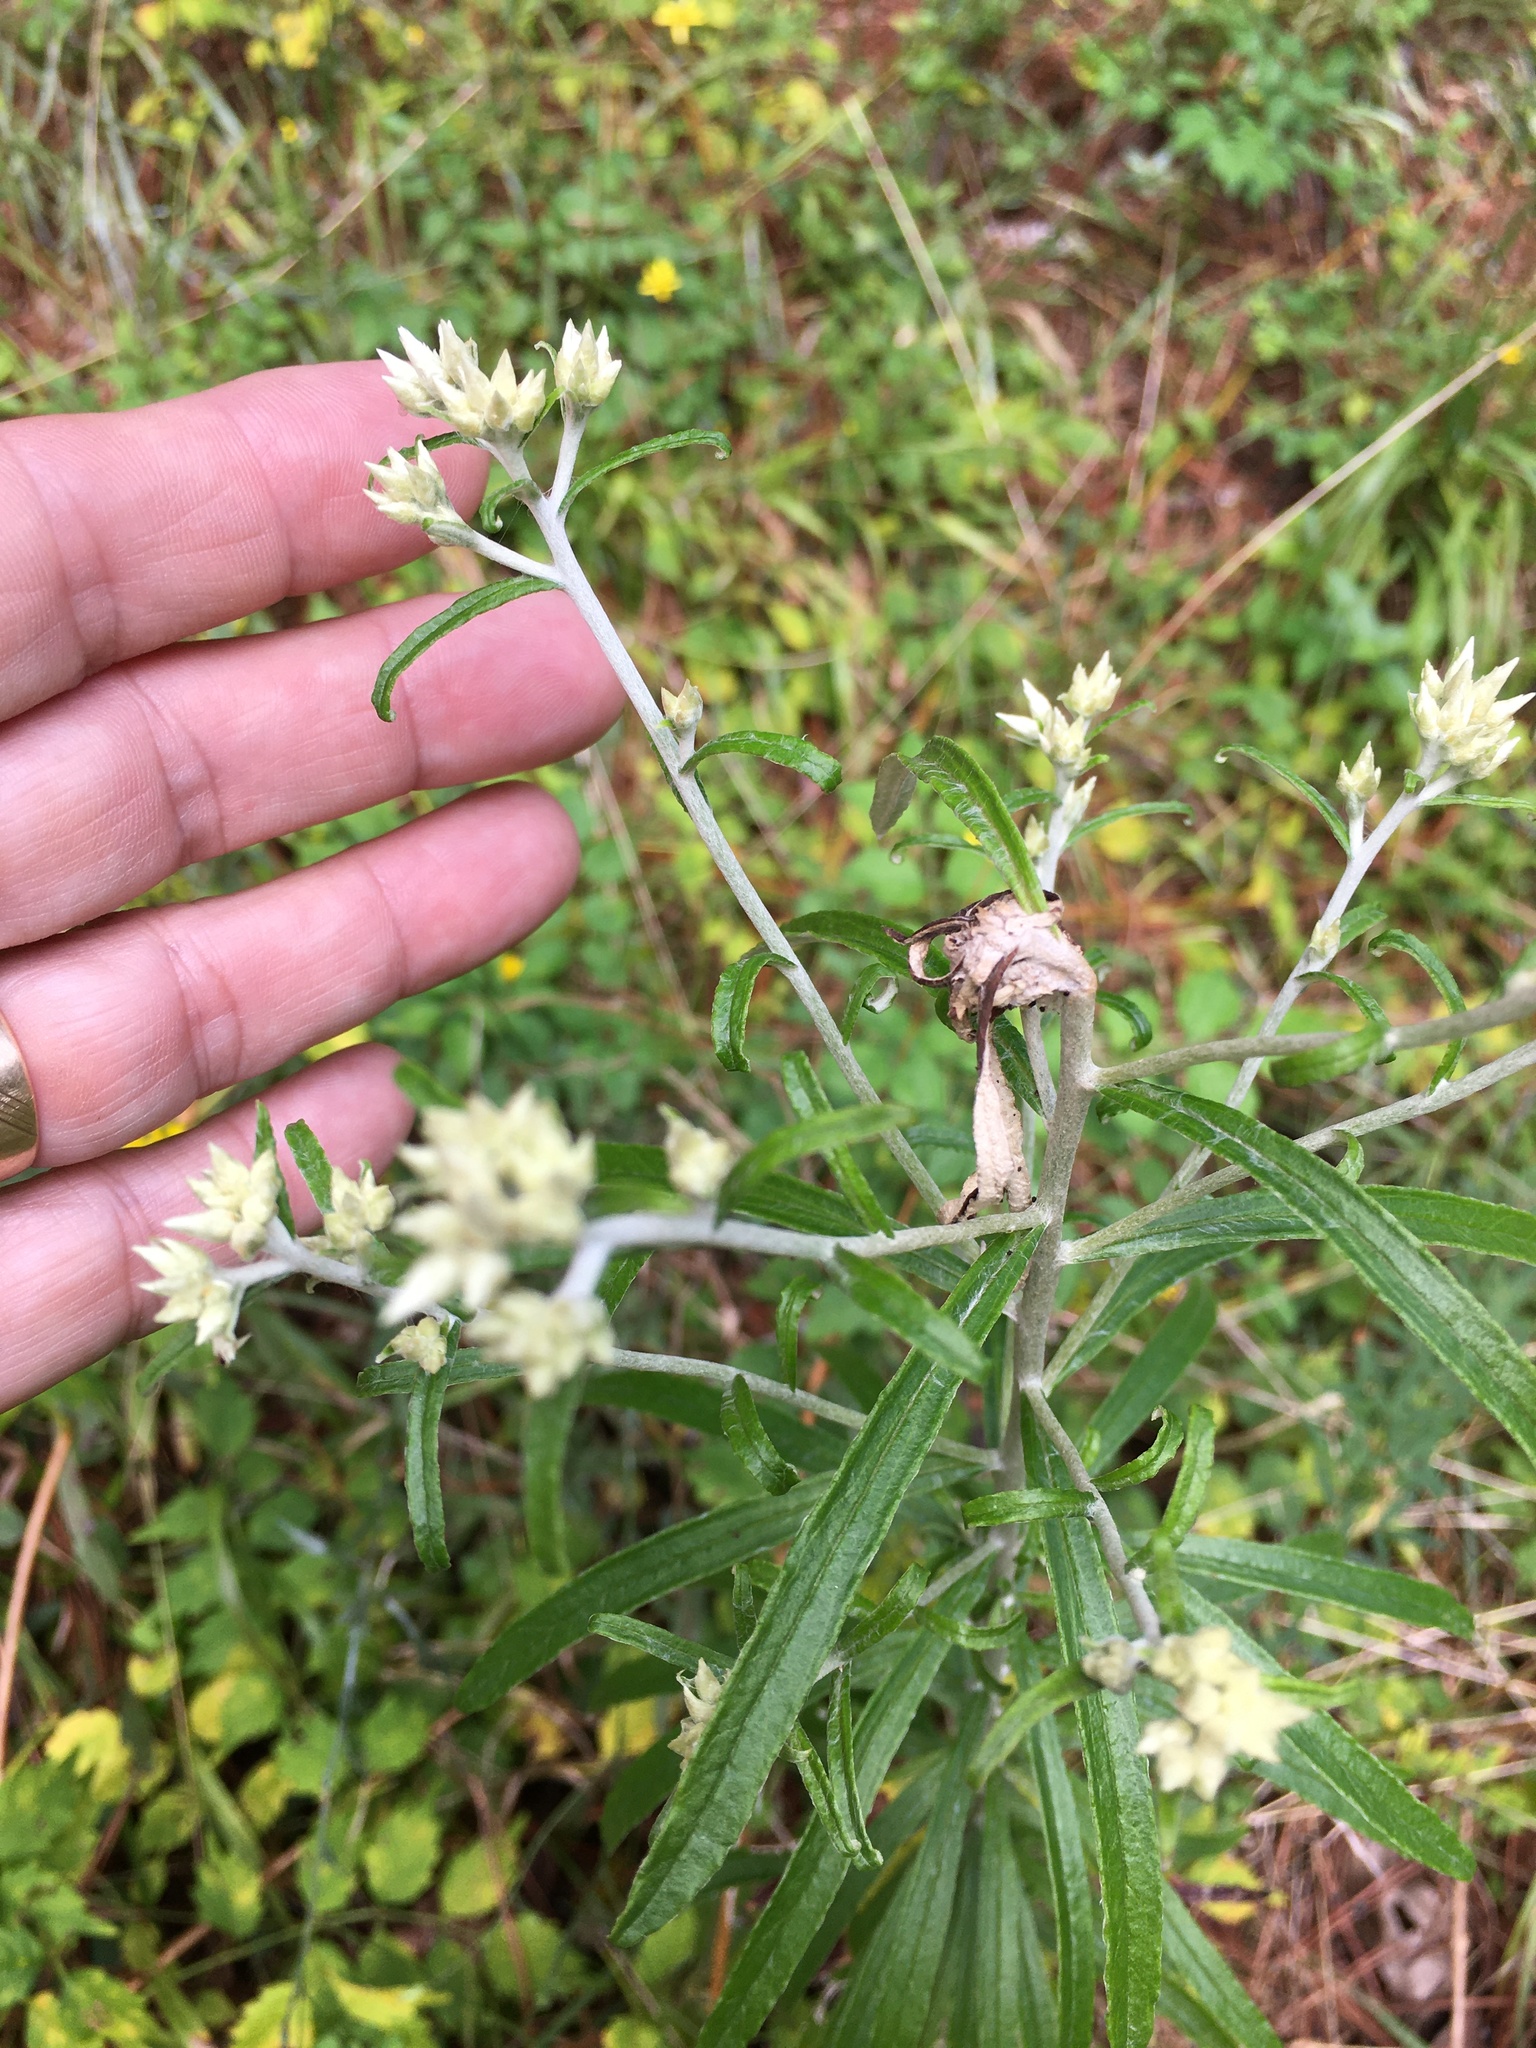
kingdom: Plantae
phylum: Tracheophyta
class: Magnoliopsida
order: Asterales
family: Asteraceae
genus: Pseudognaphalium
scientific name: Pseudognaphalium obtusifolium
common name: Eastern rabbit-tobacco
